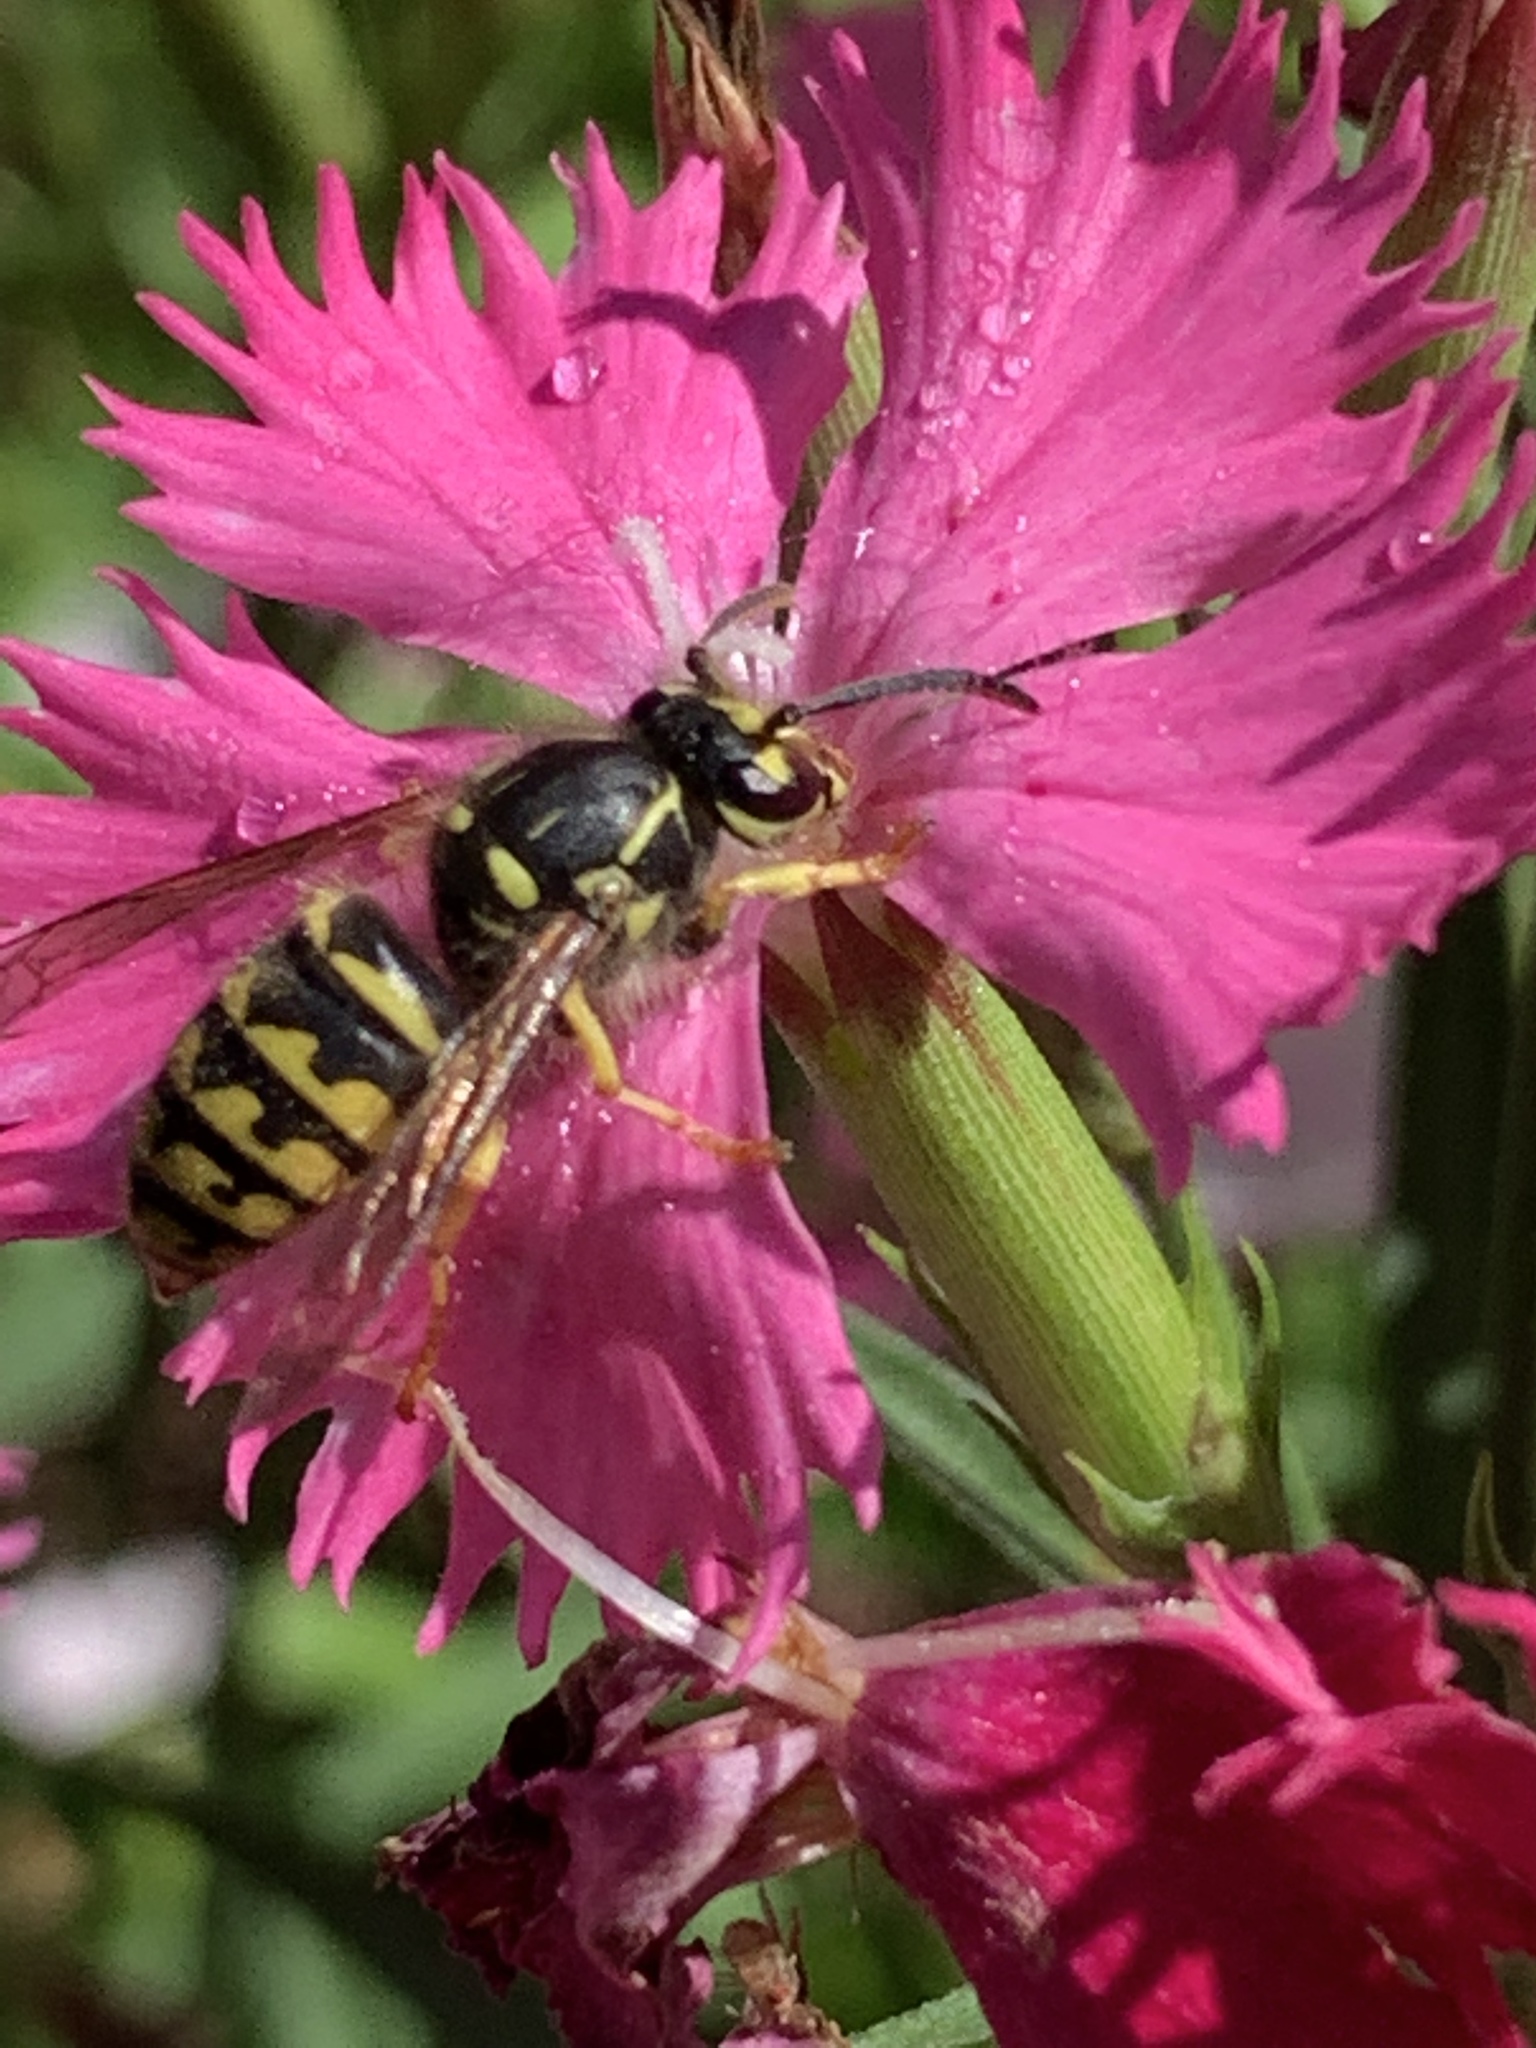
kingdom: Animalia
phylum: Arthropoda
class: Insecta
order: Hymenoptera
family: Vespidae
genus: Dolichovespula
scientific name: Dolichovespula arenaria
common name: Aerial yellowjacket
